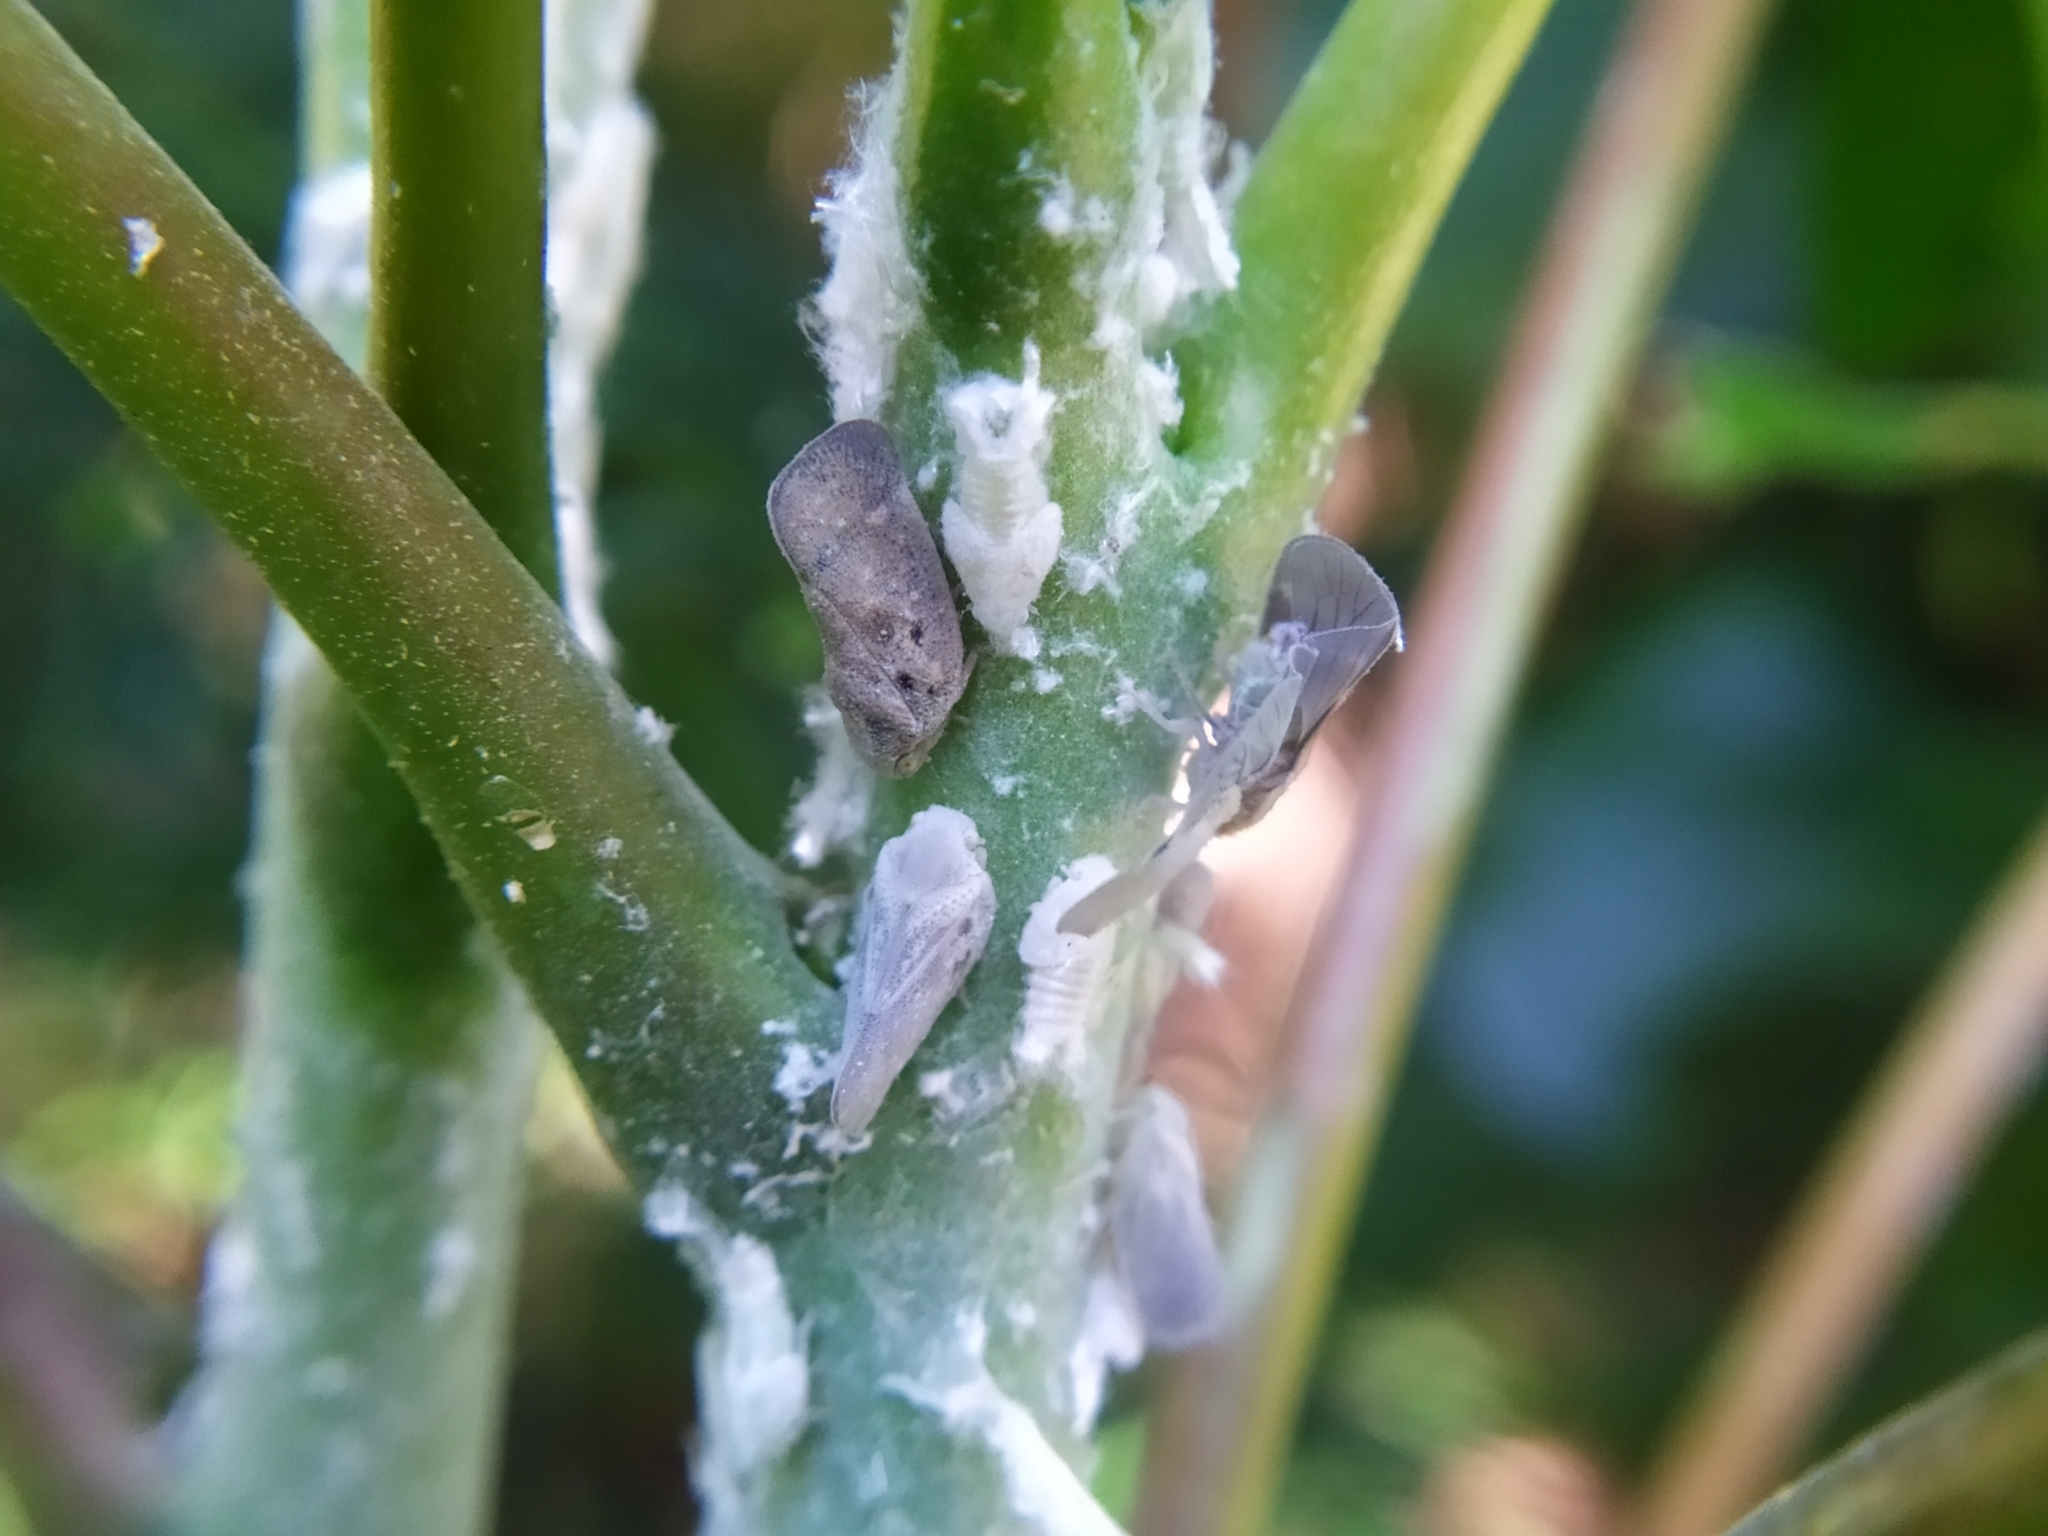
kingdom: Animalia
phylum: Arthropoda
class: Insecta
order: Hemiptera
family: Flatidae
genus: Metcalfa
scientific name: Metcalfa pruinosa
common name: Citrus flatid planthopper
